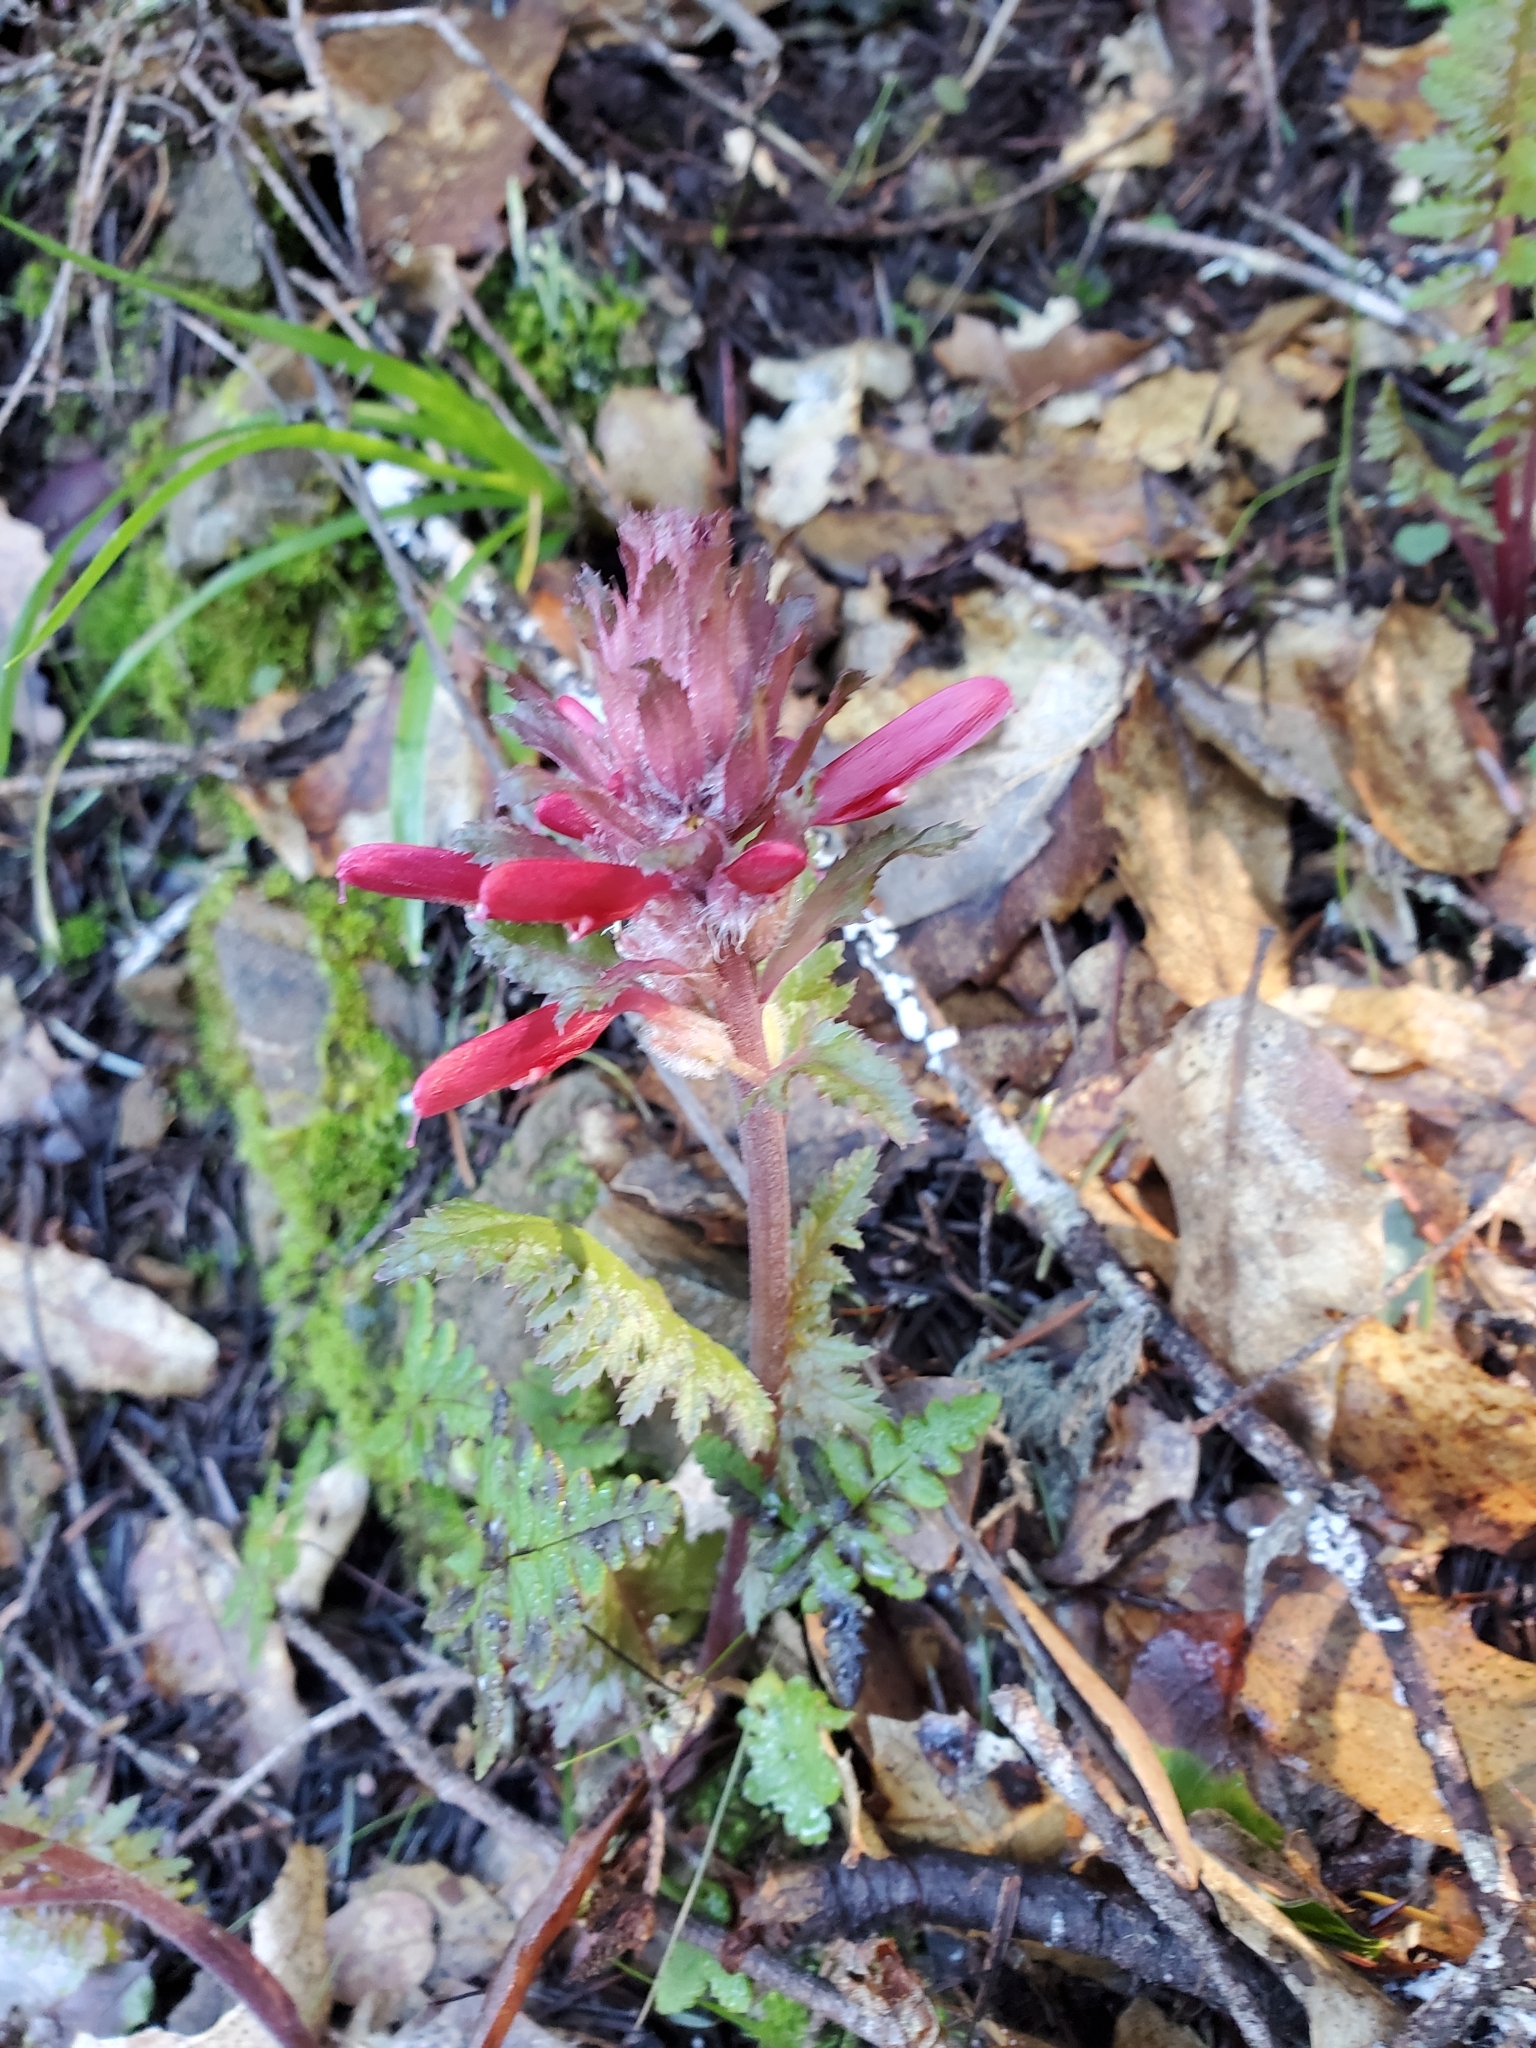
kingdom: Plantae
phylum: Tracheophyta
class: Magnoliopsida
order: Lamiales
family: Orobanchaceae
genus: Pedicularis
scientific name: Pedicularis densiflora
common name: Indian warrior
